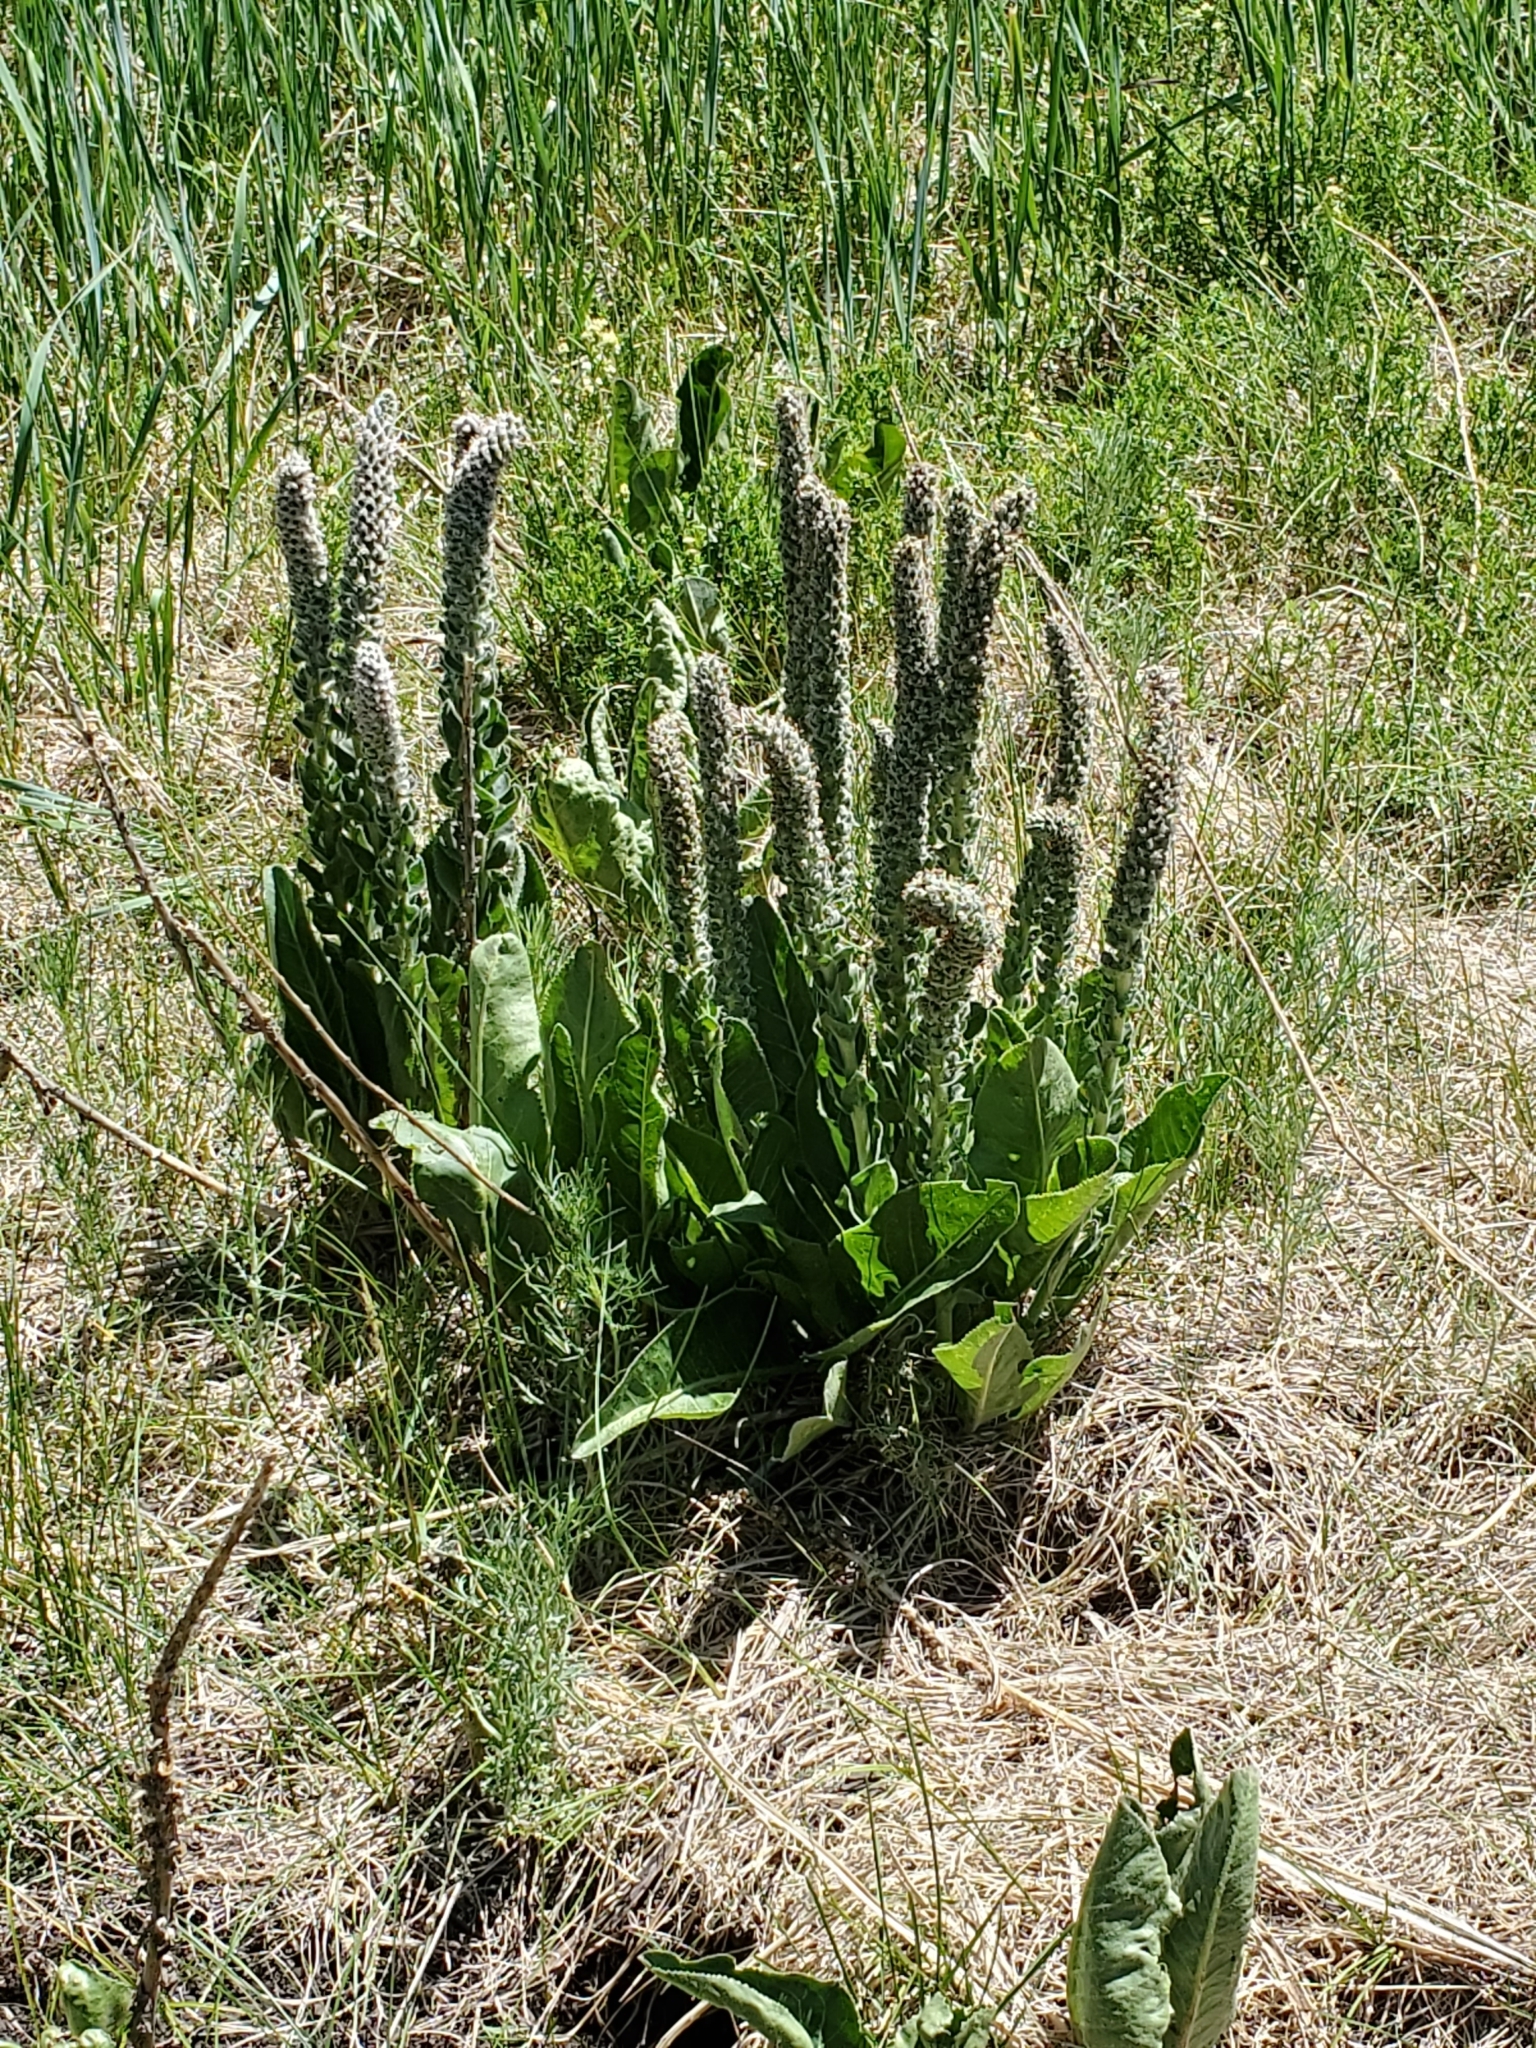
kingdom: Plantae
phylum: Tracheophyta
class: Magnoliopsida
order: Lamiales
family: Plantaginaceae
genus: Veronica
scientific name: Veronica plantaginea
